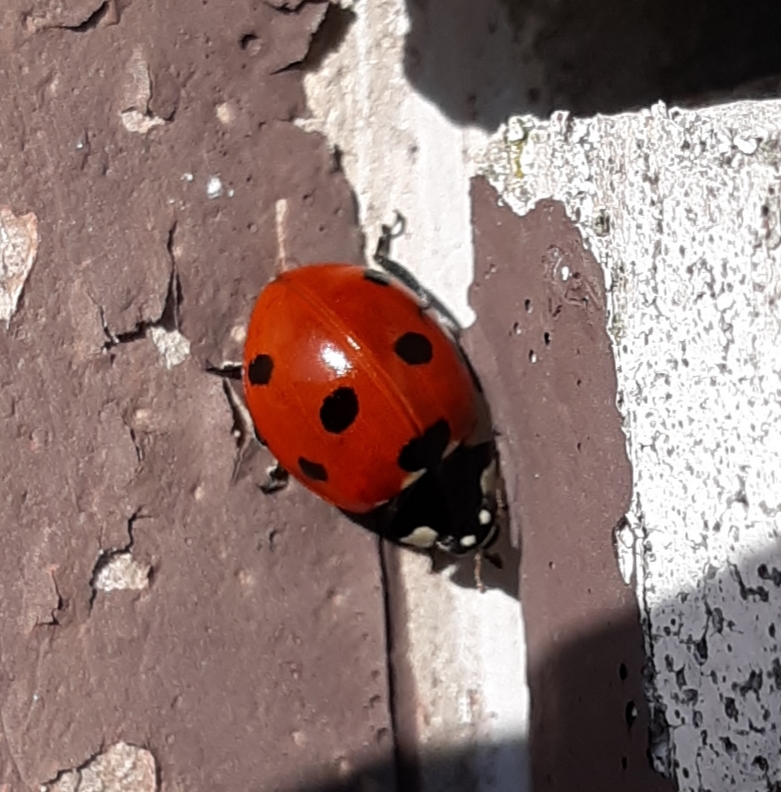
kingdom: Animalia
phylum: Arthropoda
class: Insecta
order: Coleoptera
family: Coccinellidae
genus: Coccinella
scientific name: Coccinella septempunctata
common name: Sevenspotted lady beetle
